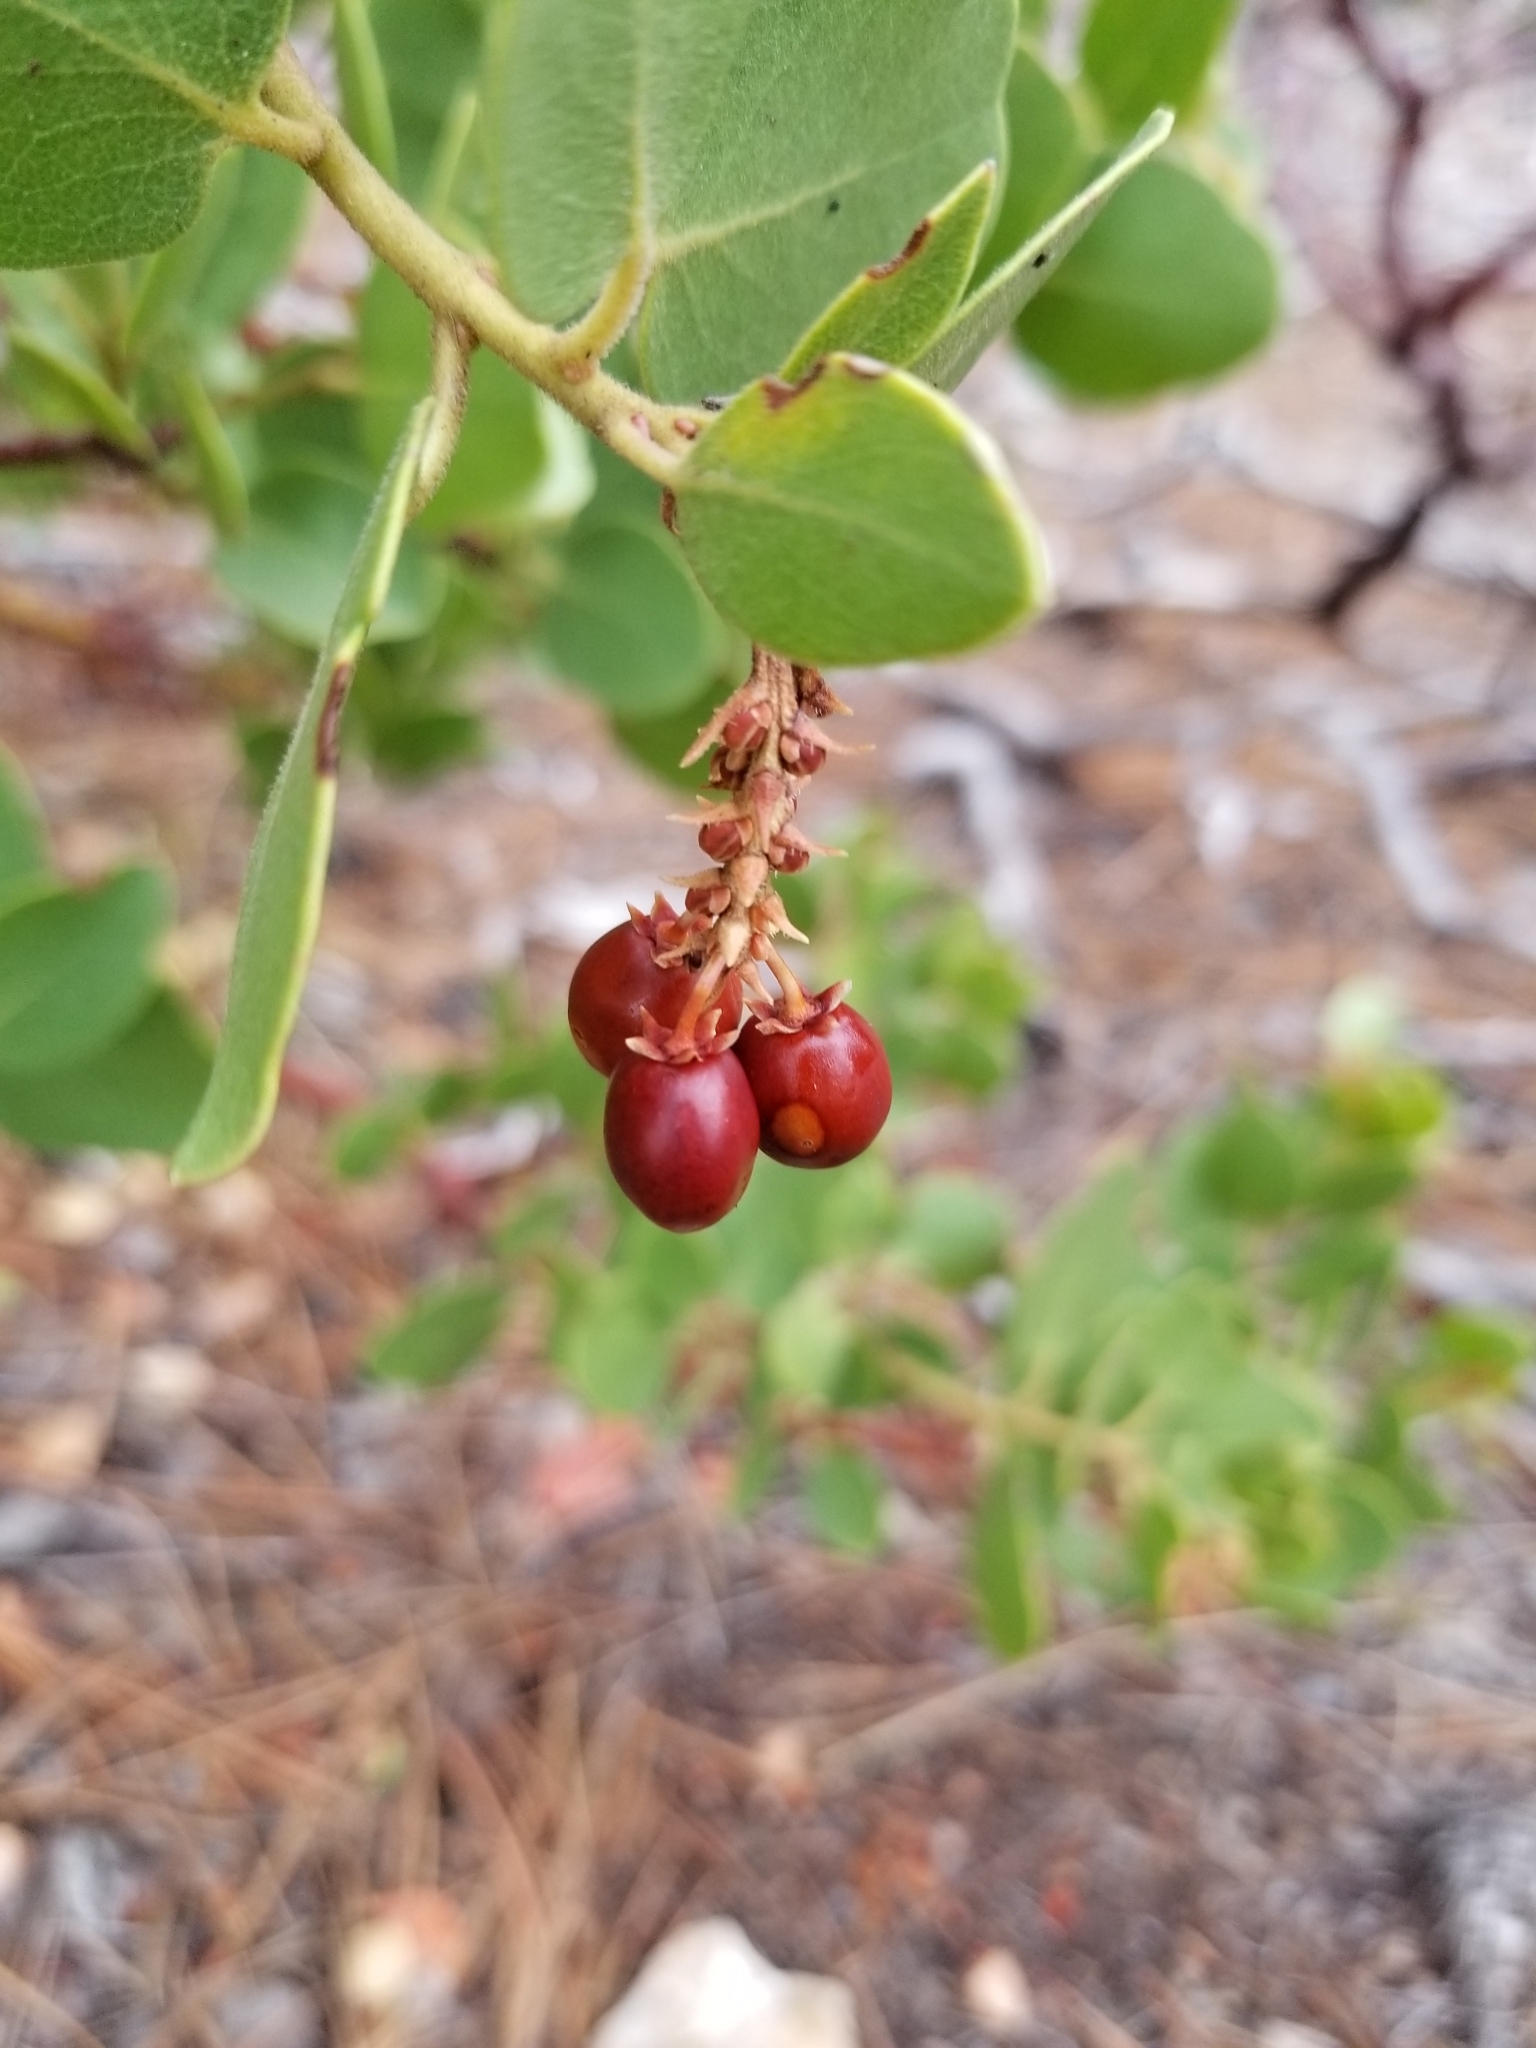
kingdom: Plantae
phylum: Tracheophyta
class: Magnoliopsida
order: Ericales
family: Ericaceae
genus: Arctostaphylos
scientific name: Arctostaphylos patula
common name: Green-leaf manzanita
